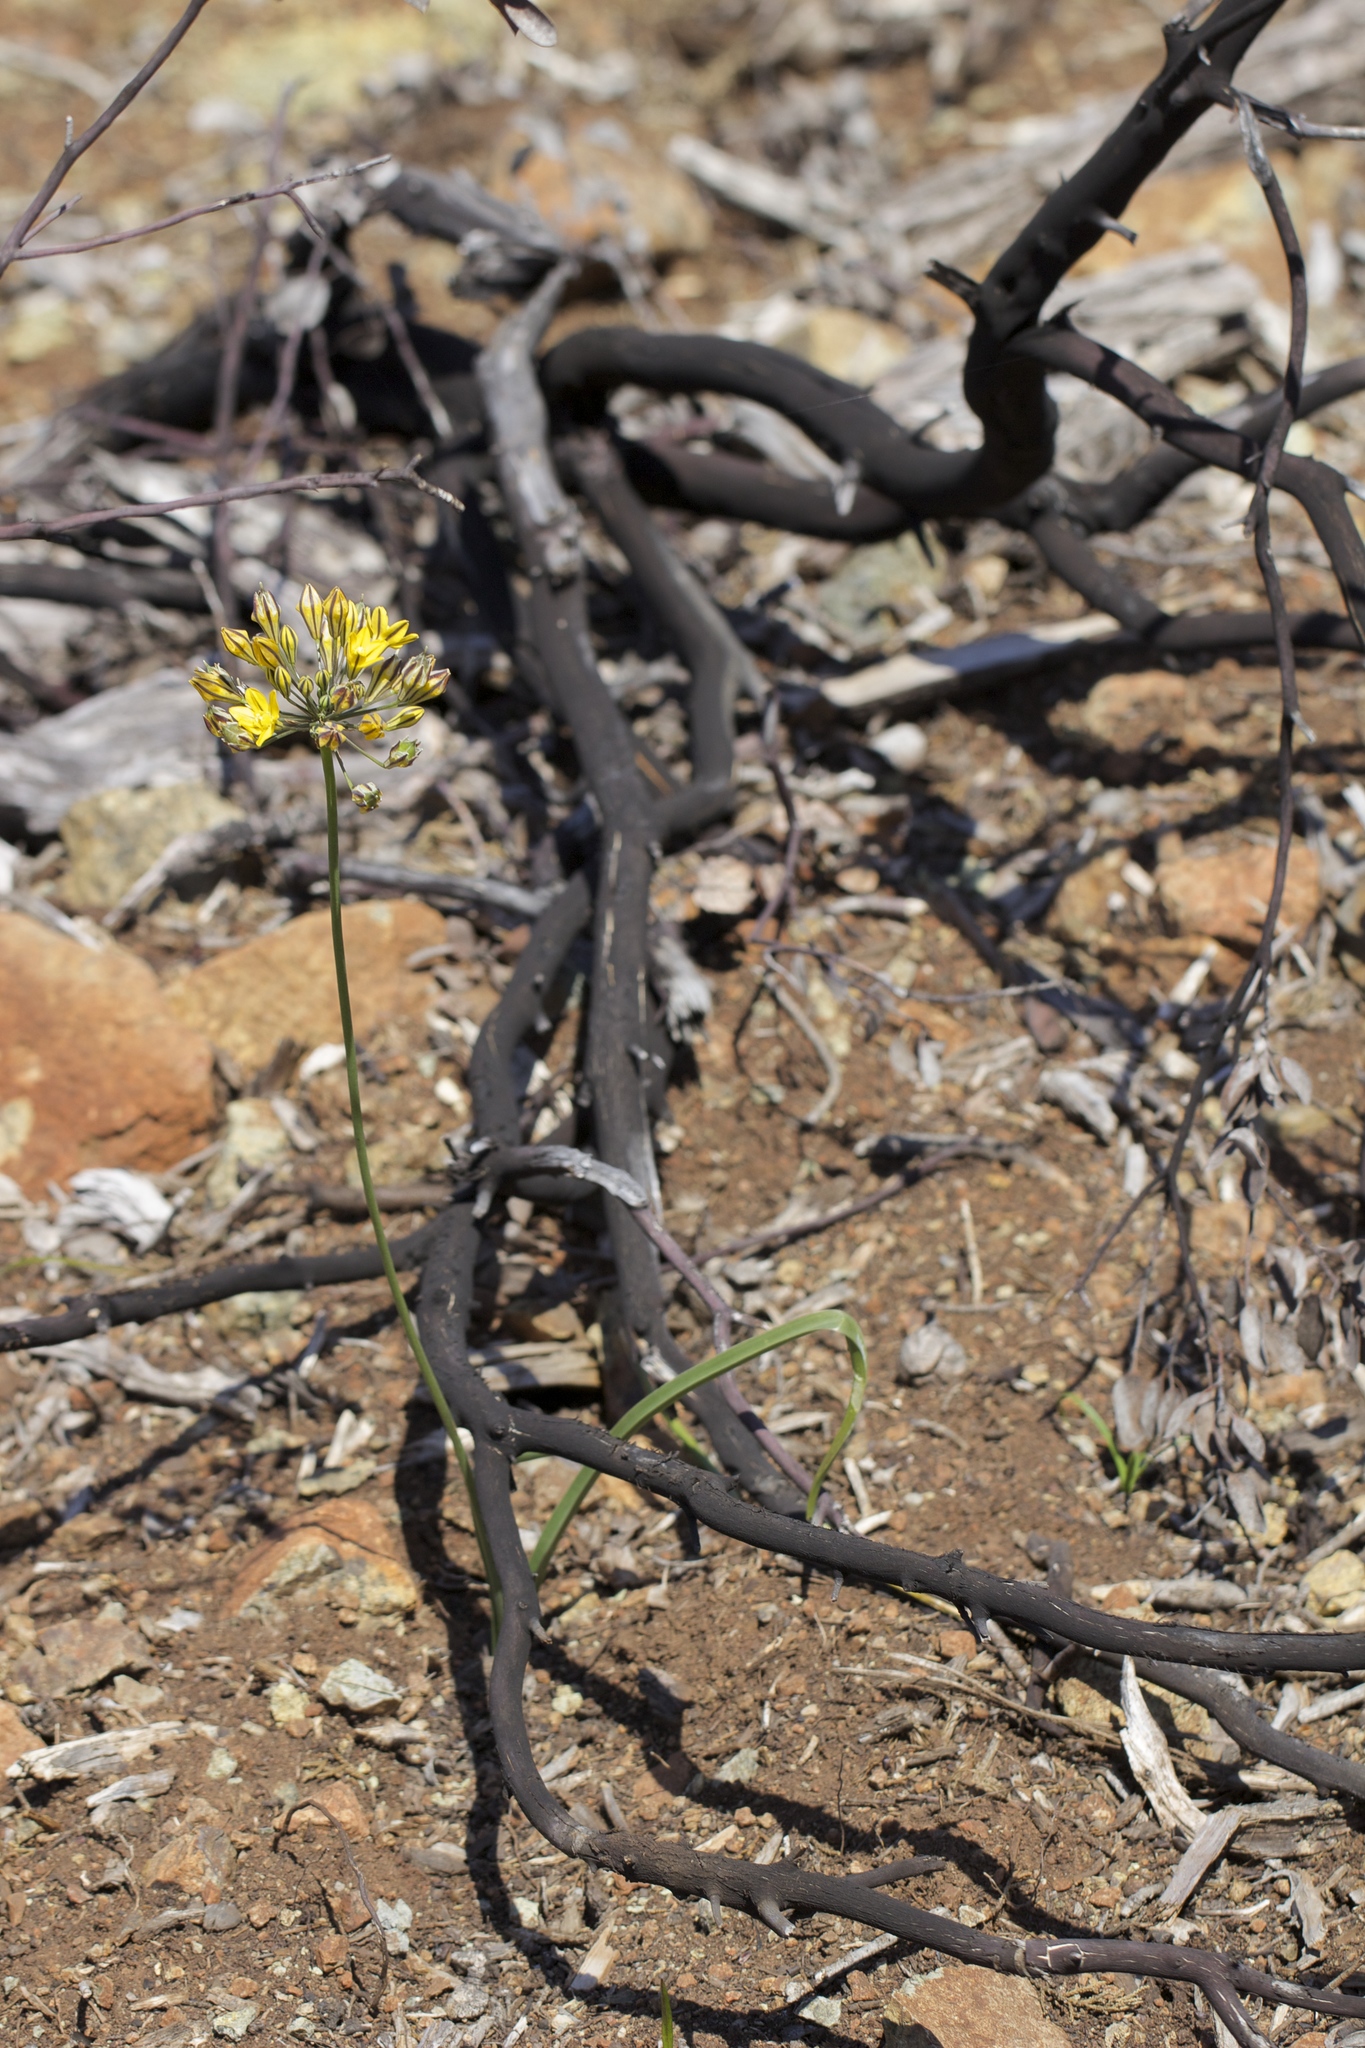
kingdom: Plantae
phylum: Tracheophyta
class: Liliopsida
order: Asparagales
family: Asparagaceae
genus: Triteleia
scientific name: Triteleia lugens
